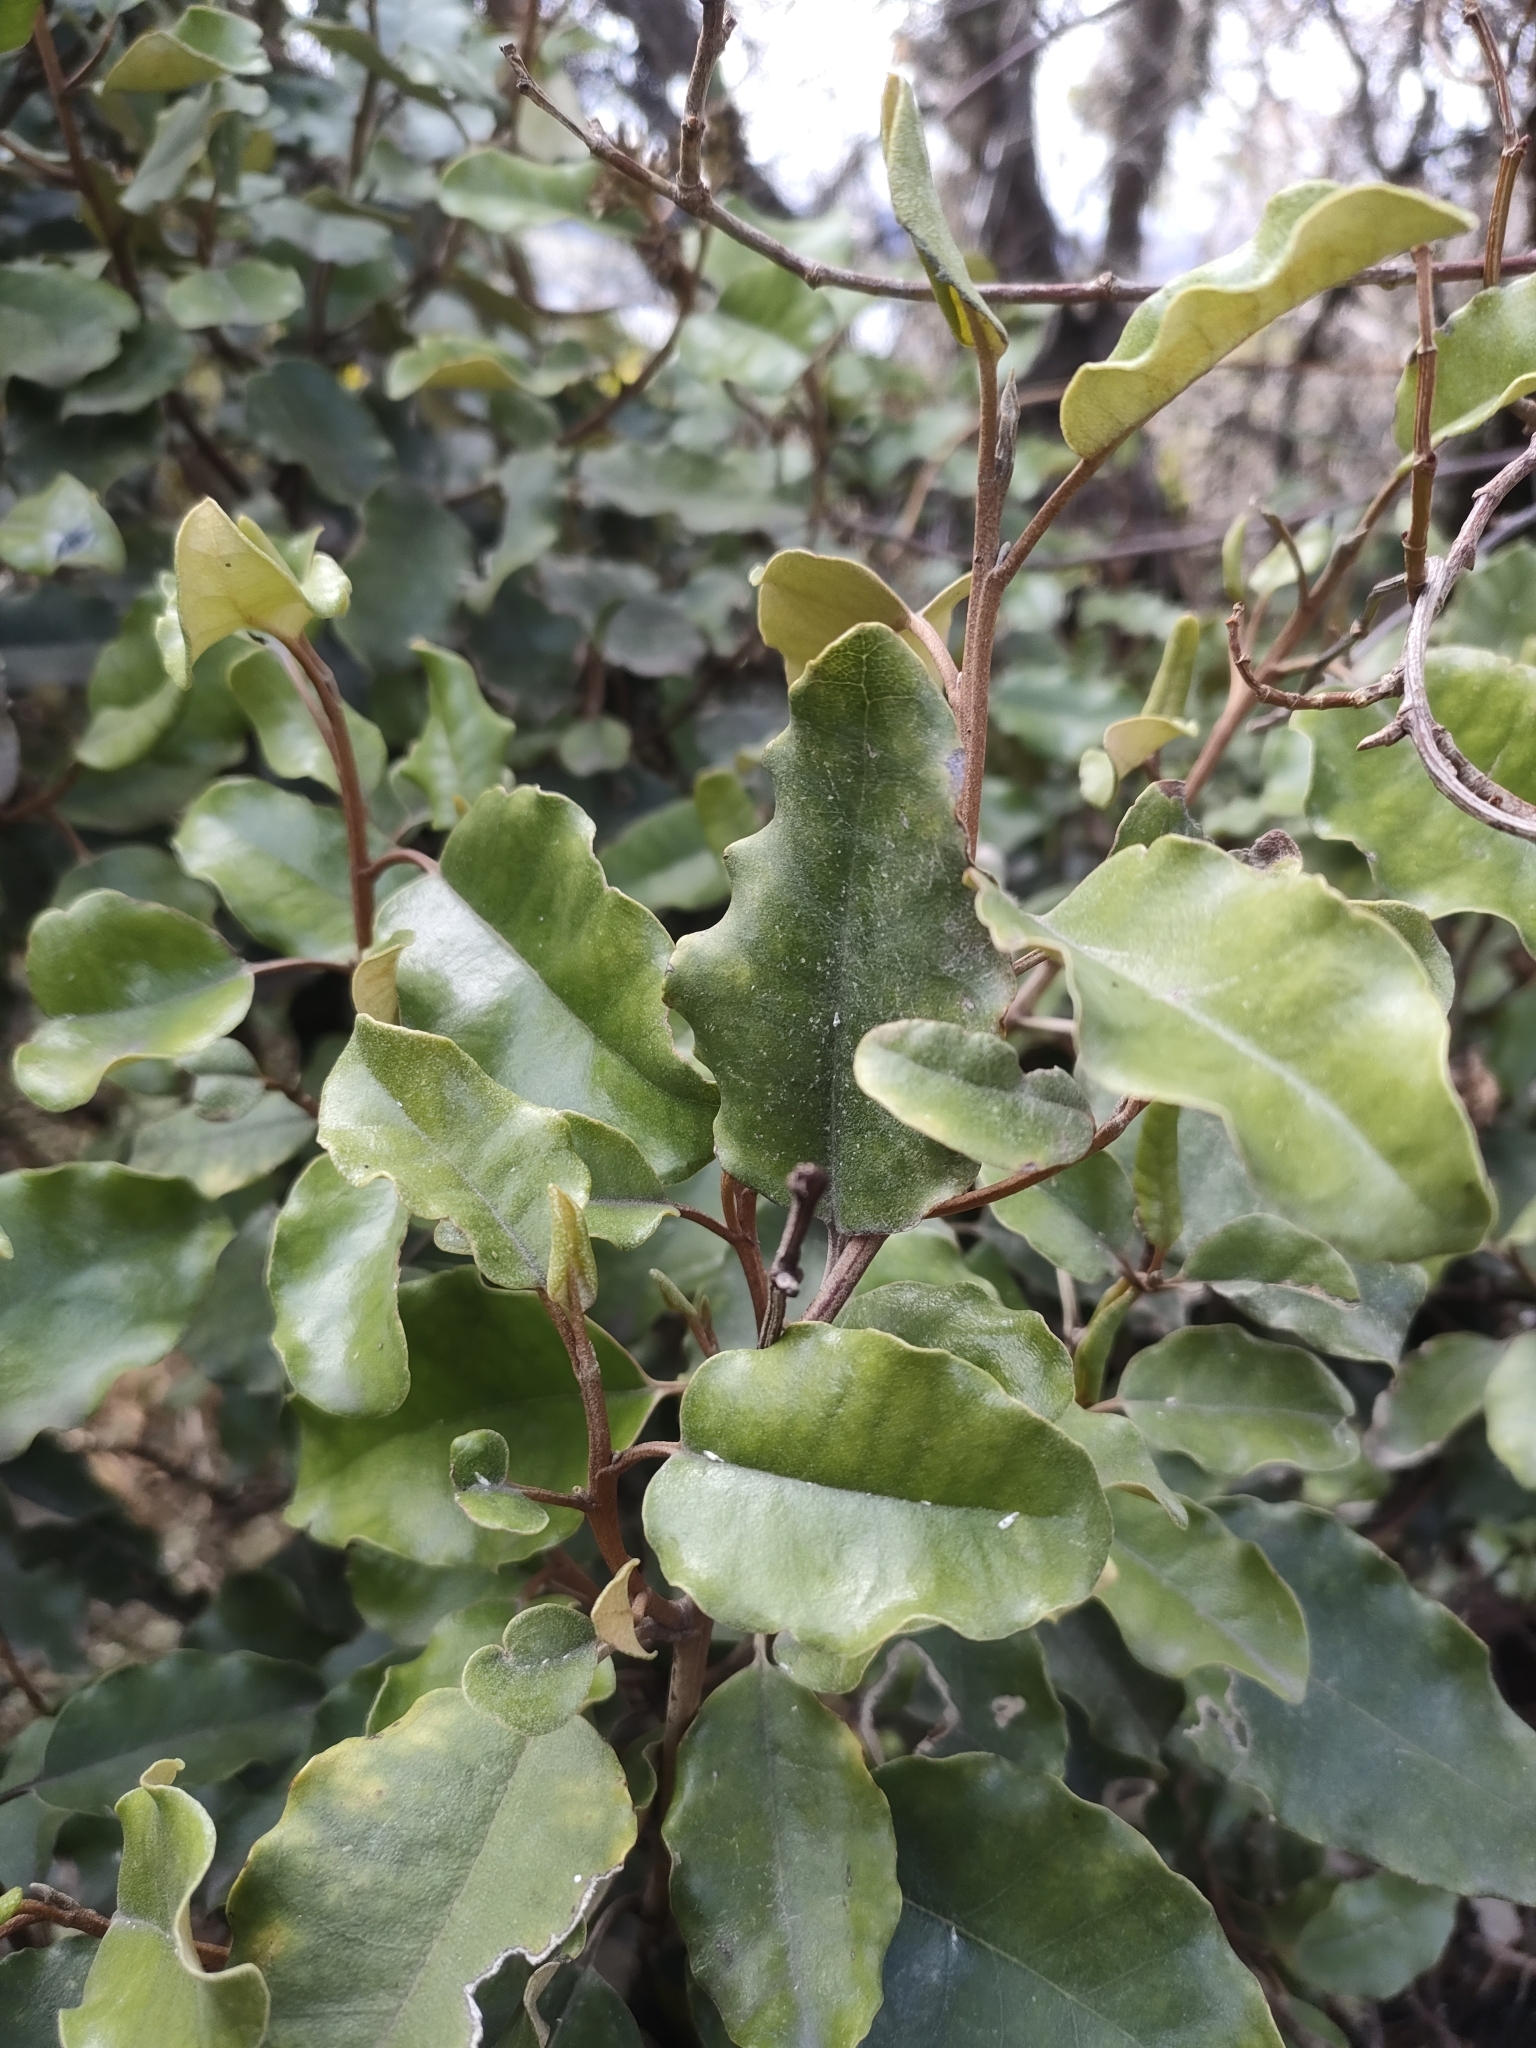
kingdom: Plantae
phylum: Tracheophyta
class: Magnoliopsida
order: Asterales
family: Asteraceae
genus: Olearia
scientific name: Olearia paniculata
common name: Akiraho
